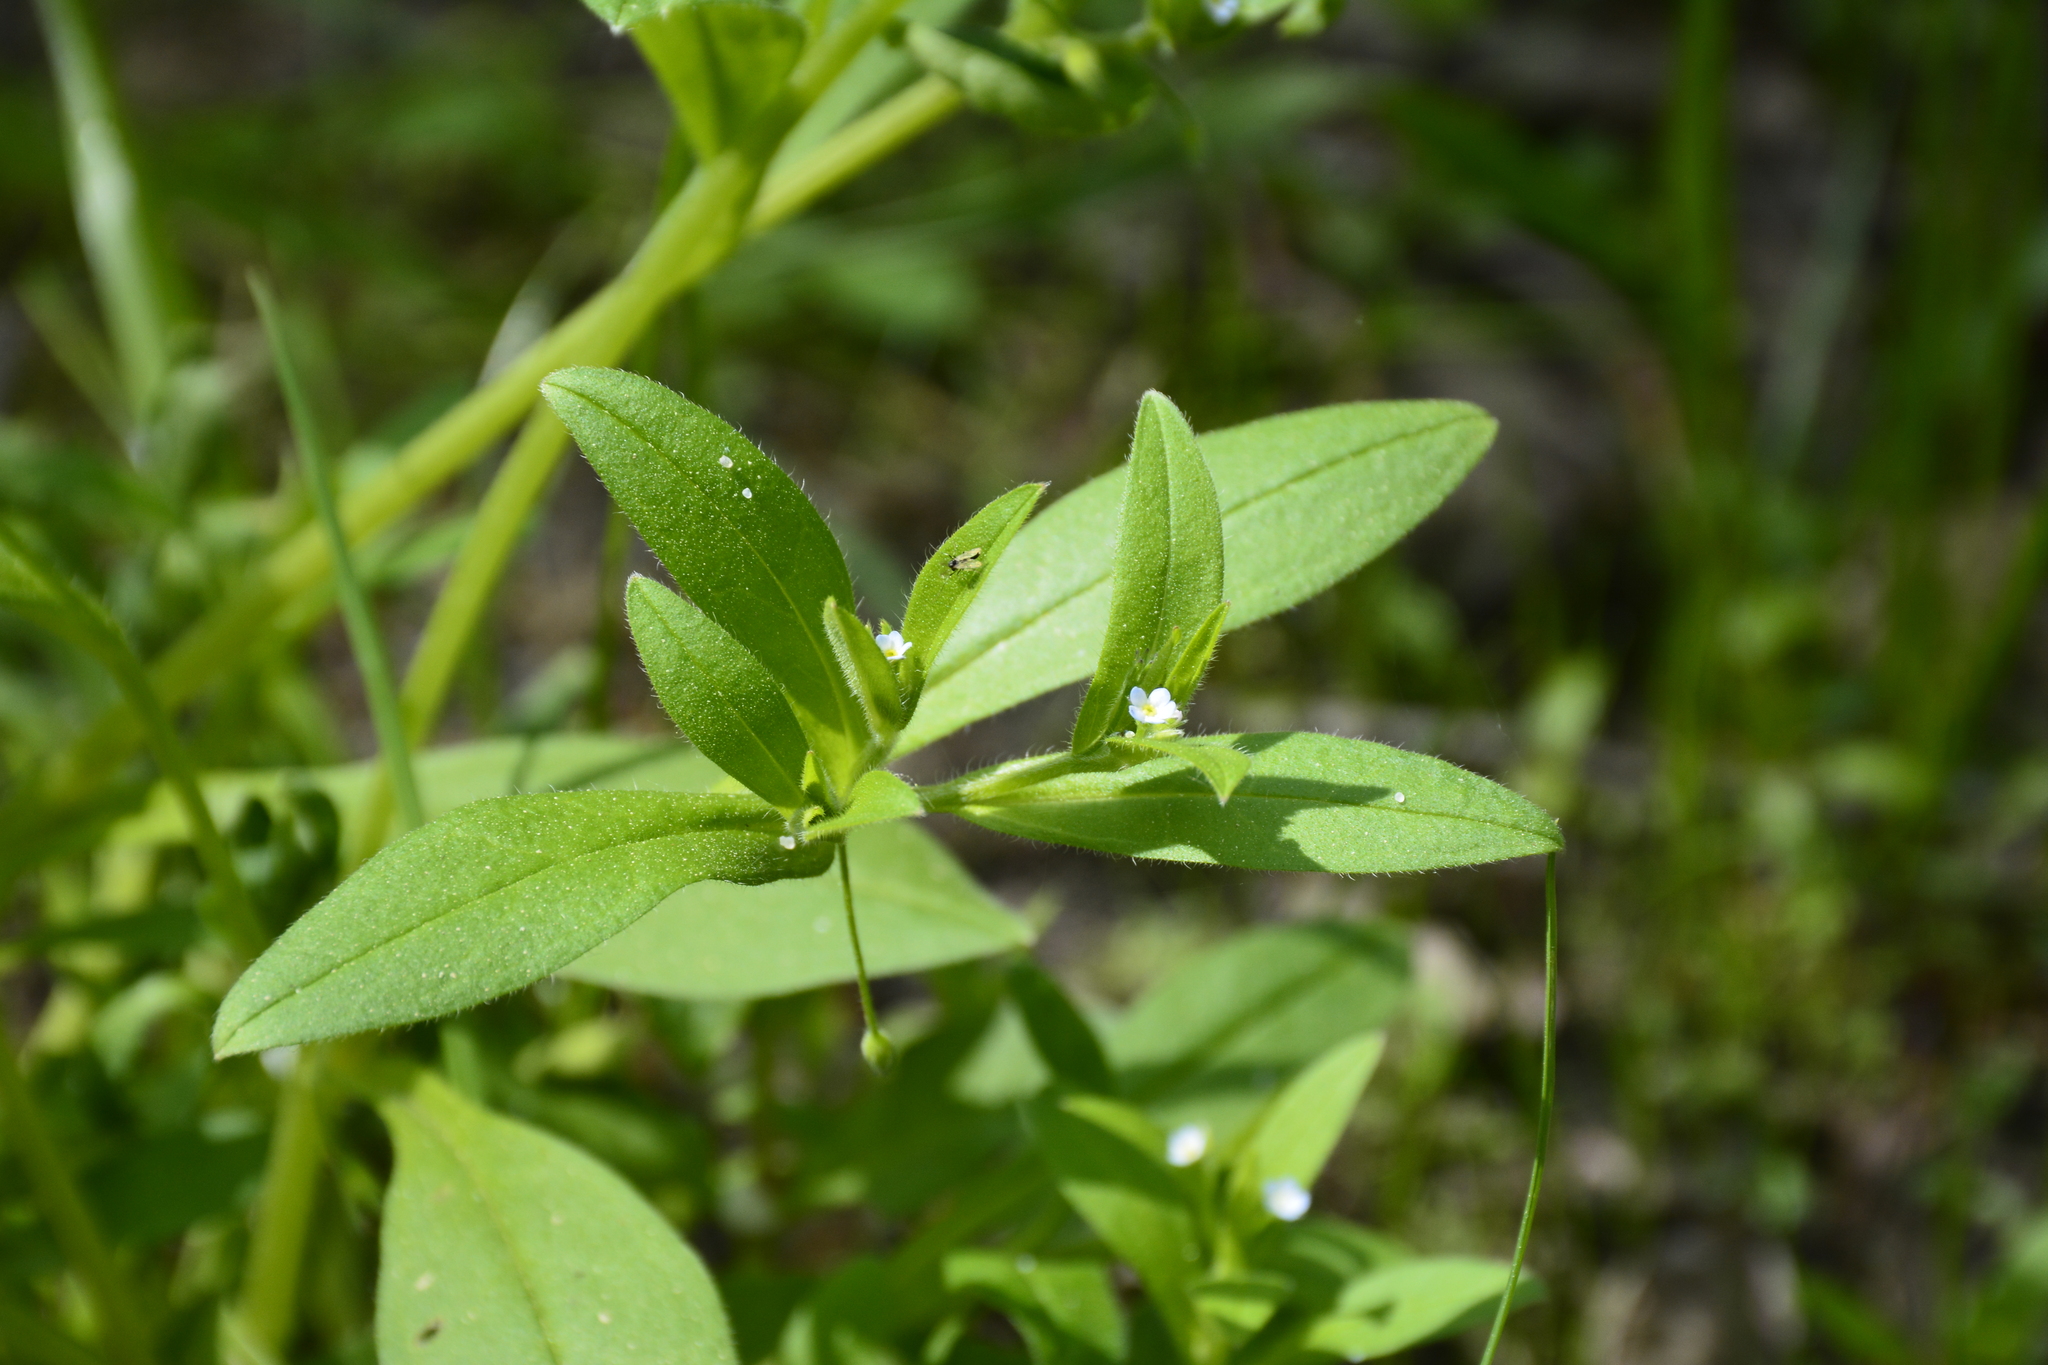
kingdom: Plantae
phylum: Tracheophyta
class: Magnoliopsida
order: Boraginales
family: Boraginaceae
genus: Myosotis
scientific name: Myosotis sparsiflora
